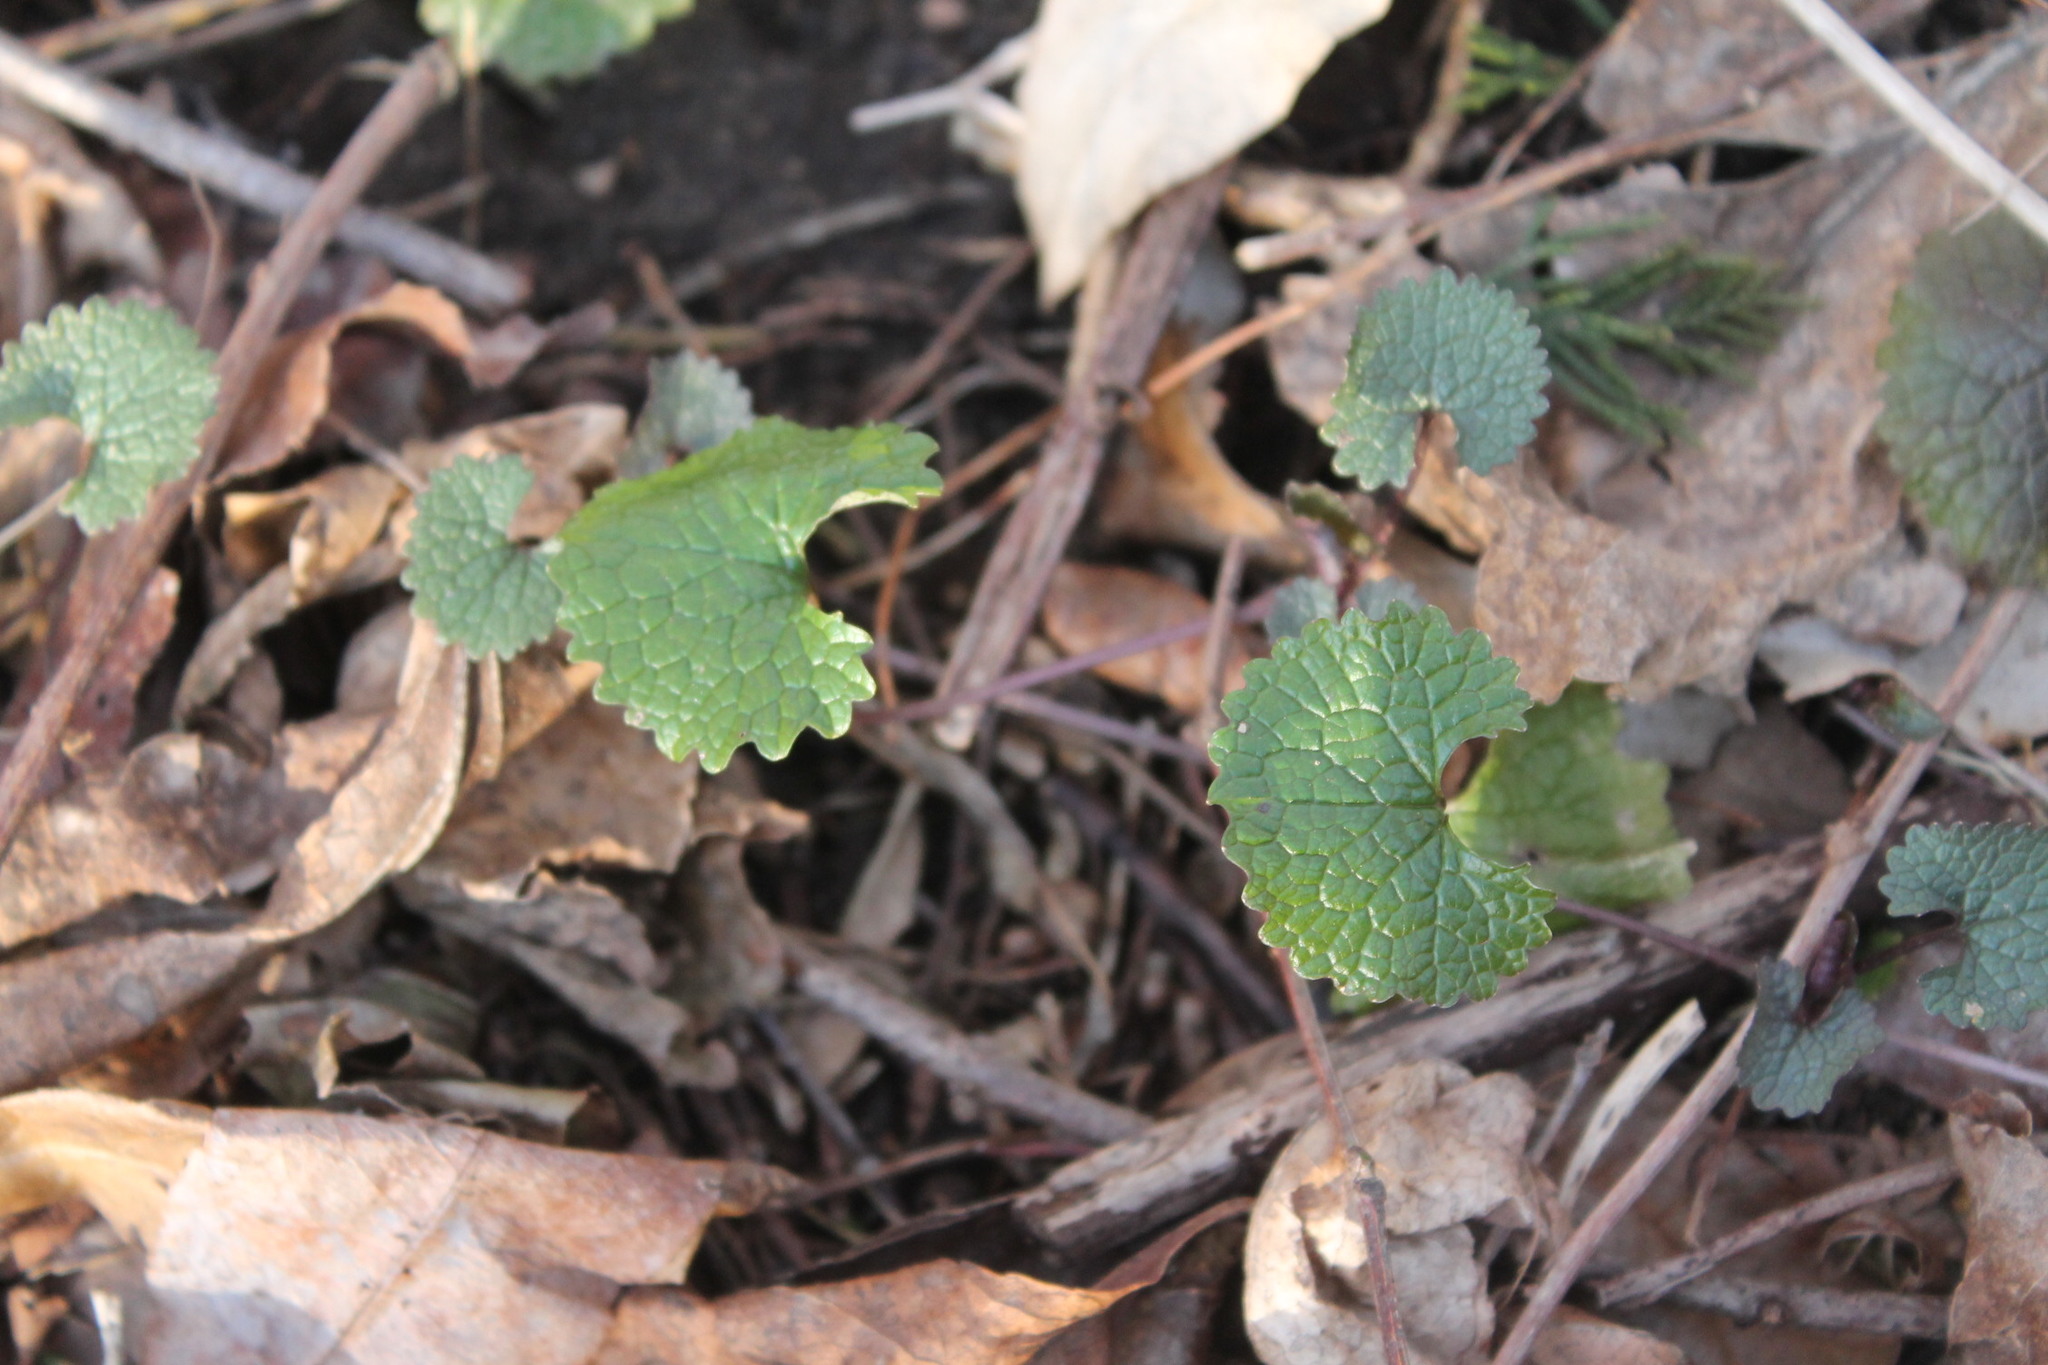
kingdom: Plantae
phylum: Tracheophyta
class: Magnoliopsida
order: Brassicales
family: Brassicaceae
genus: Alliaria
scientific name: Alliaria petiolata
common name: Garlic mustard
